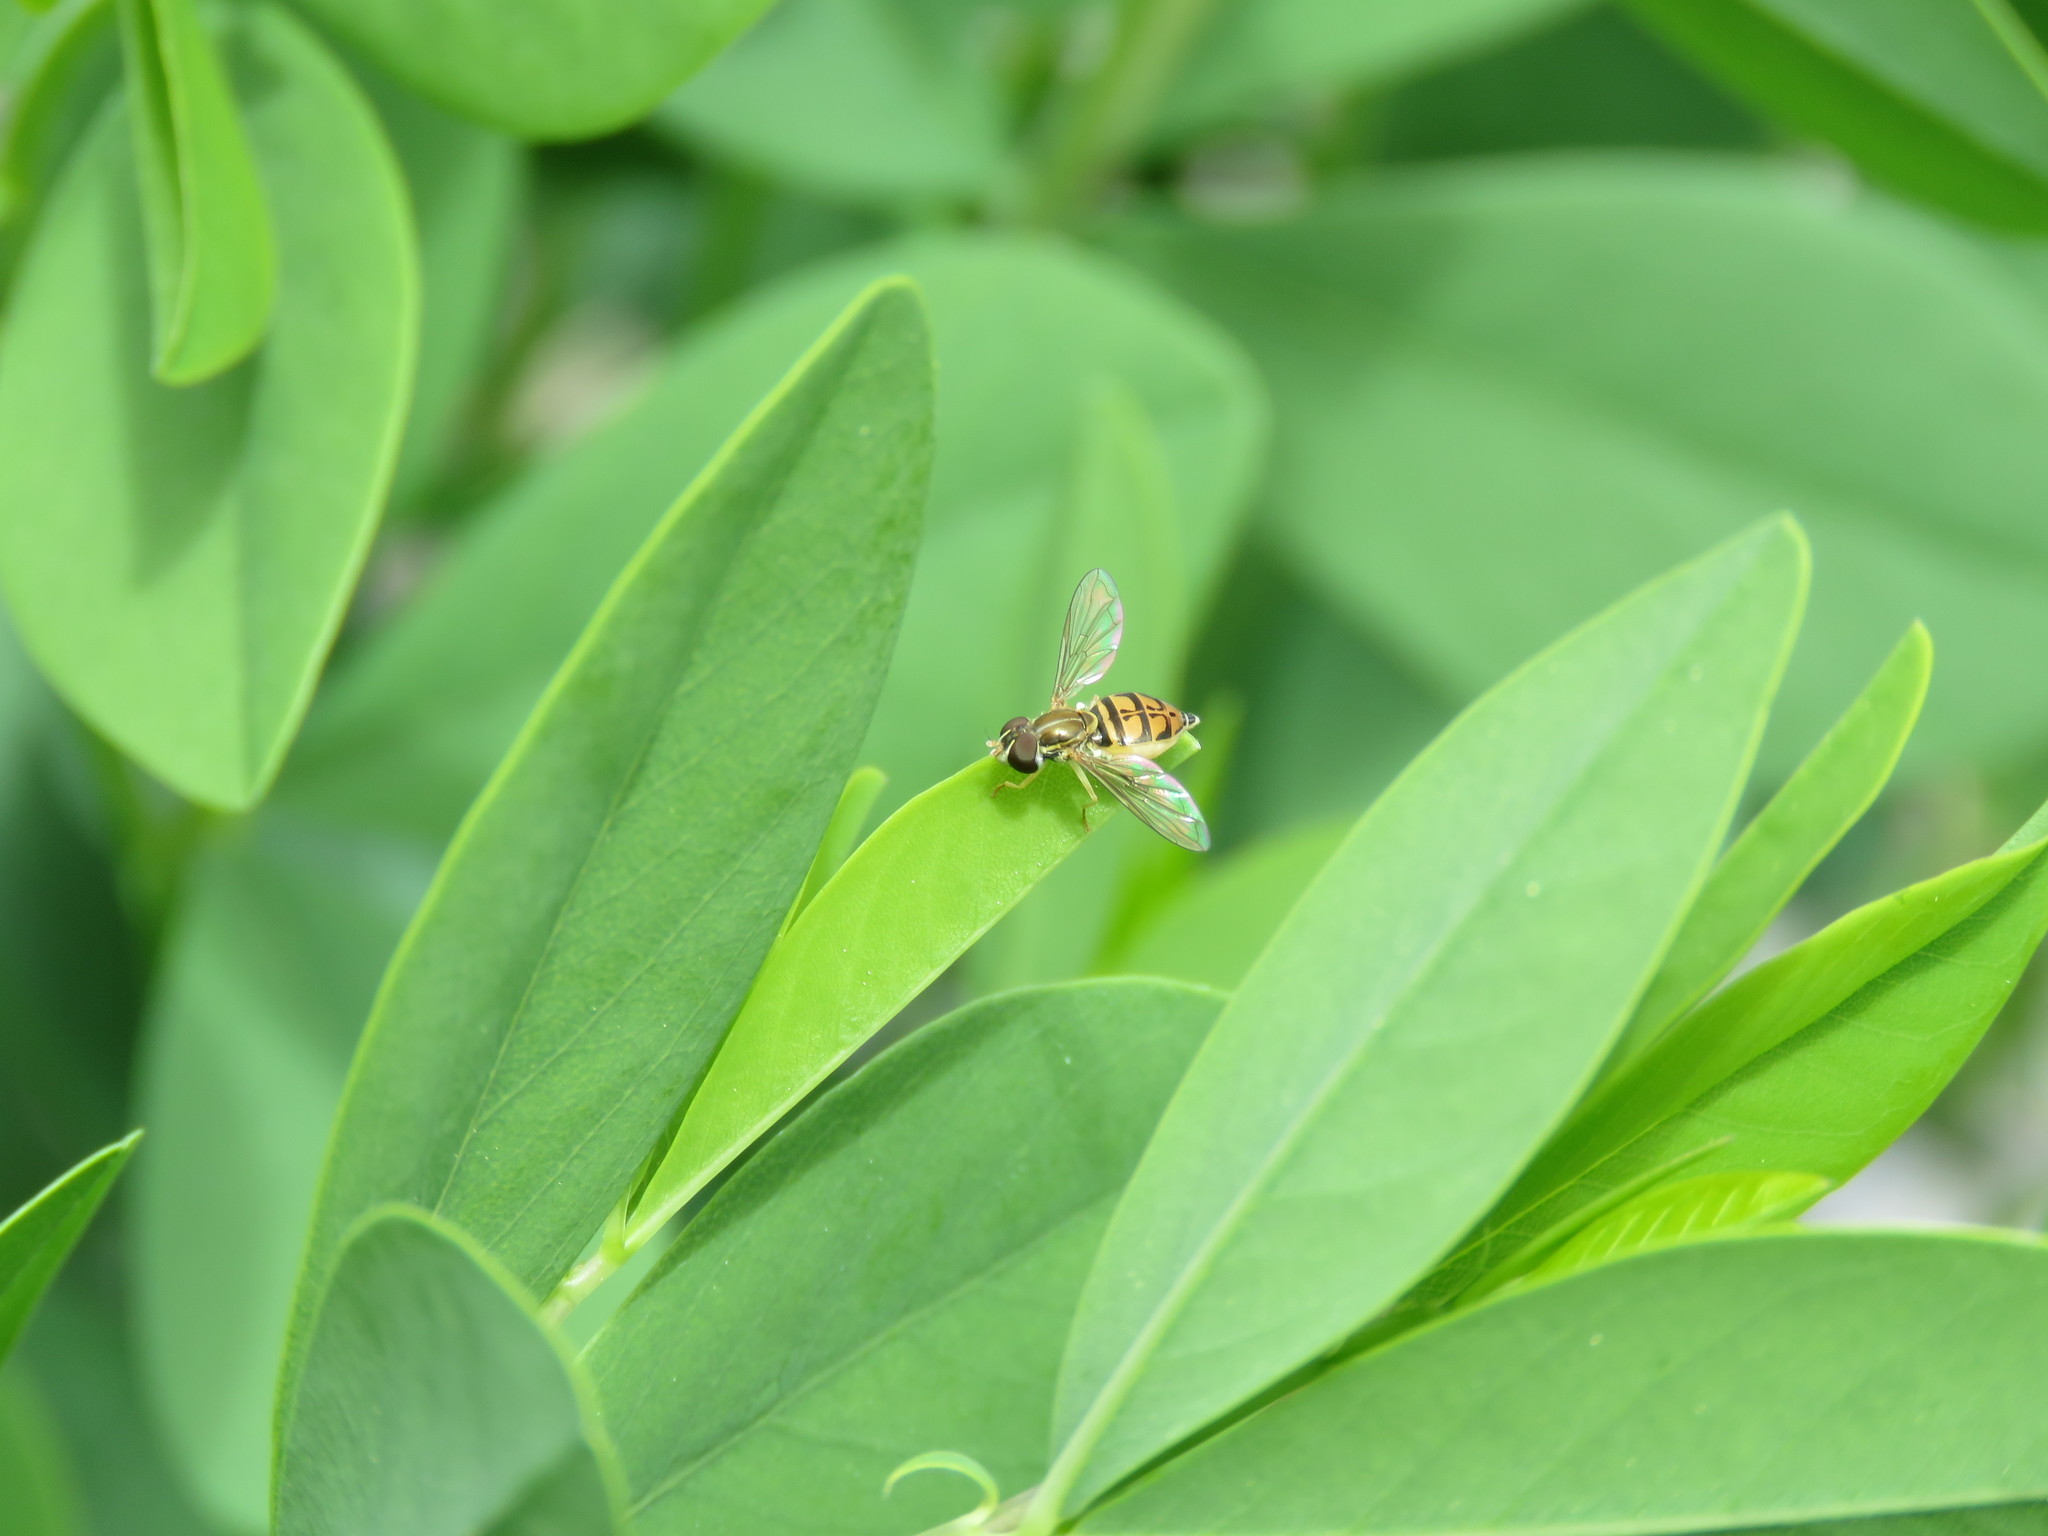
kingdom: Animalia
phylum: Arthropoda
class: Insecta
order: Diptera
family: Syrphidae
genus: Toxomerus
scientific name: Toxomerus marginatus
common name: Syrphid fly
